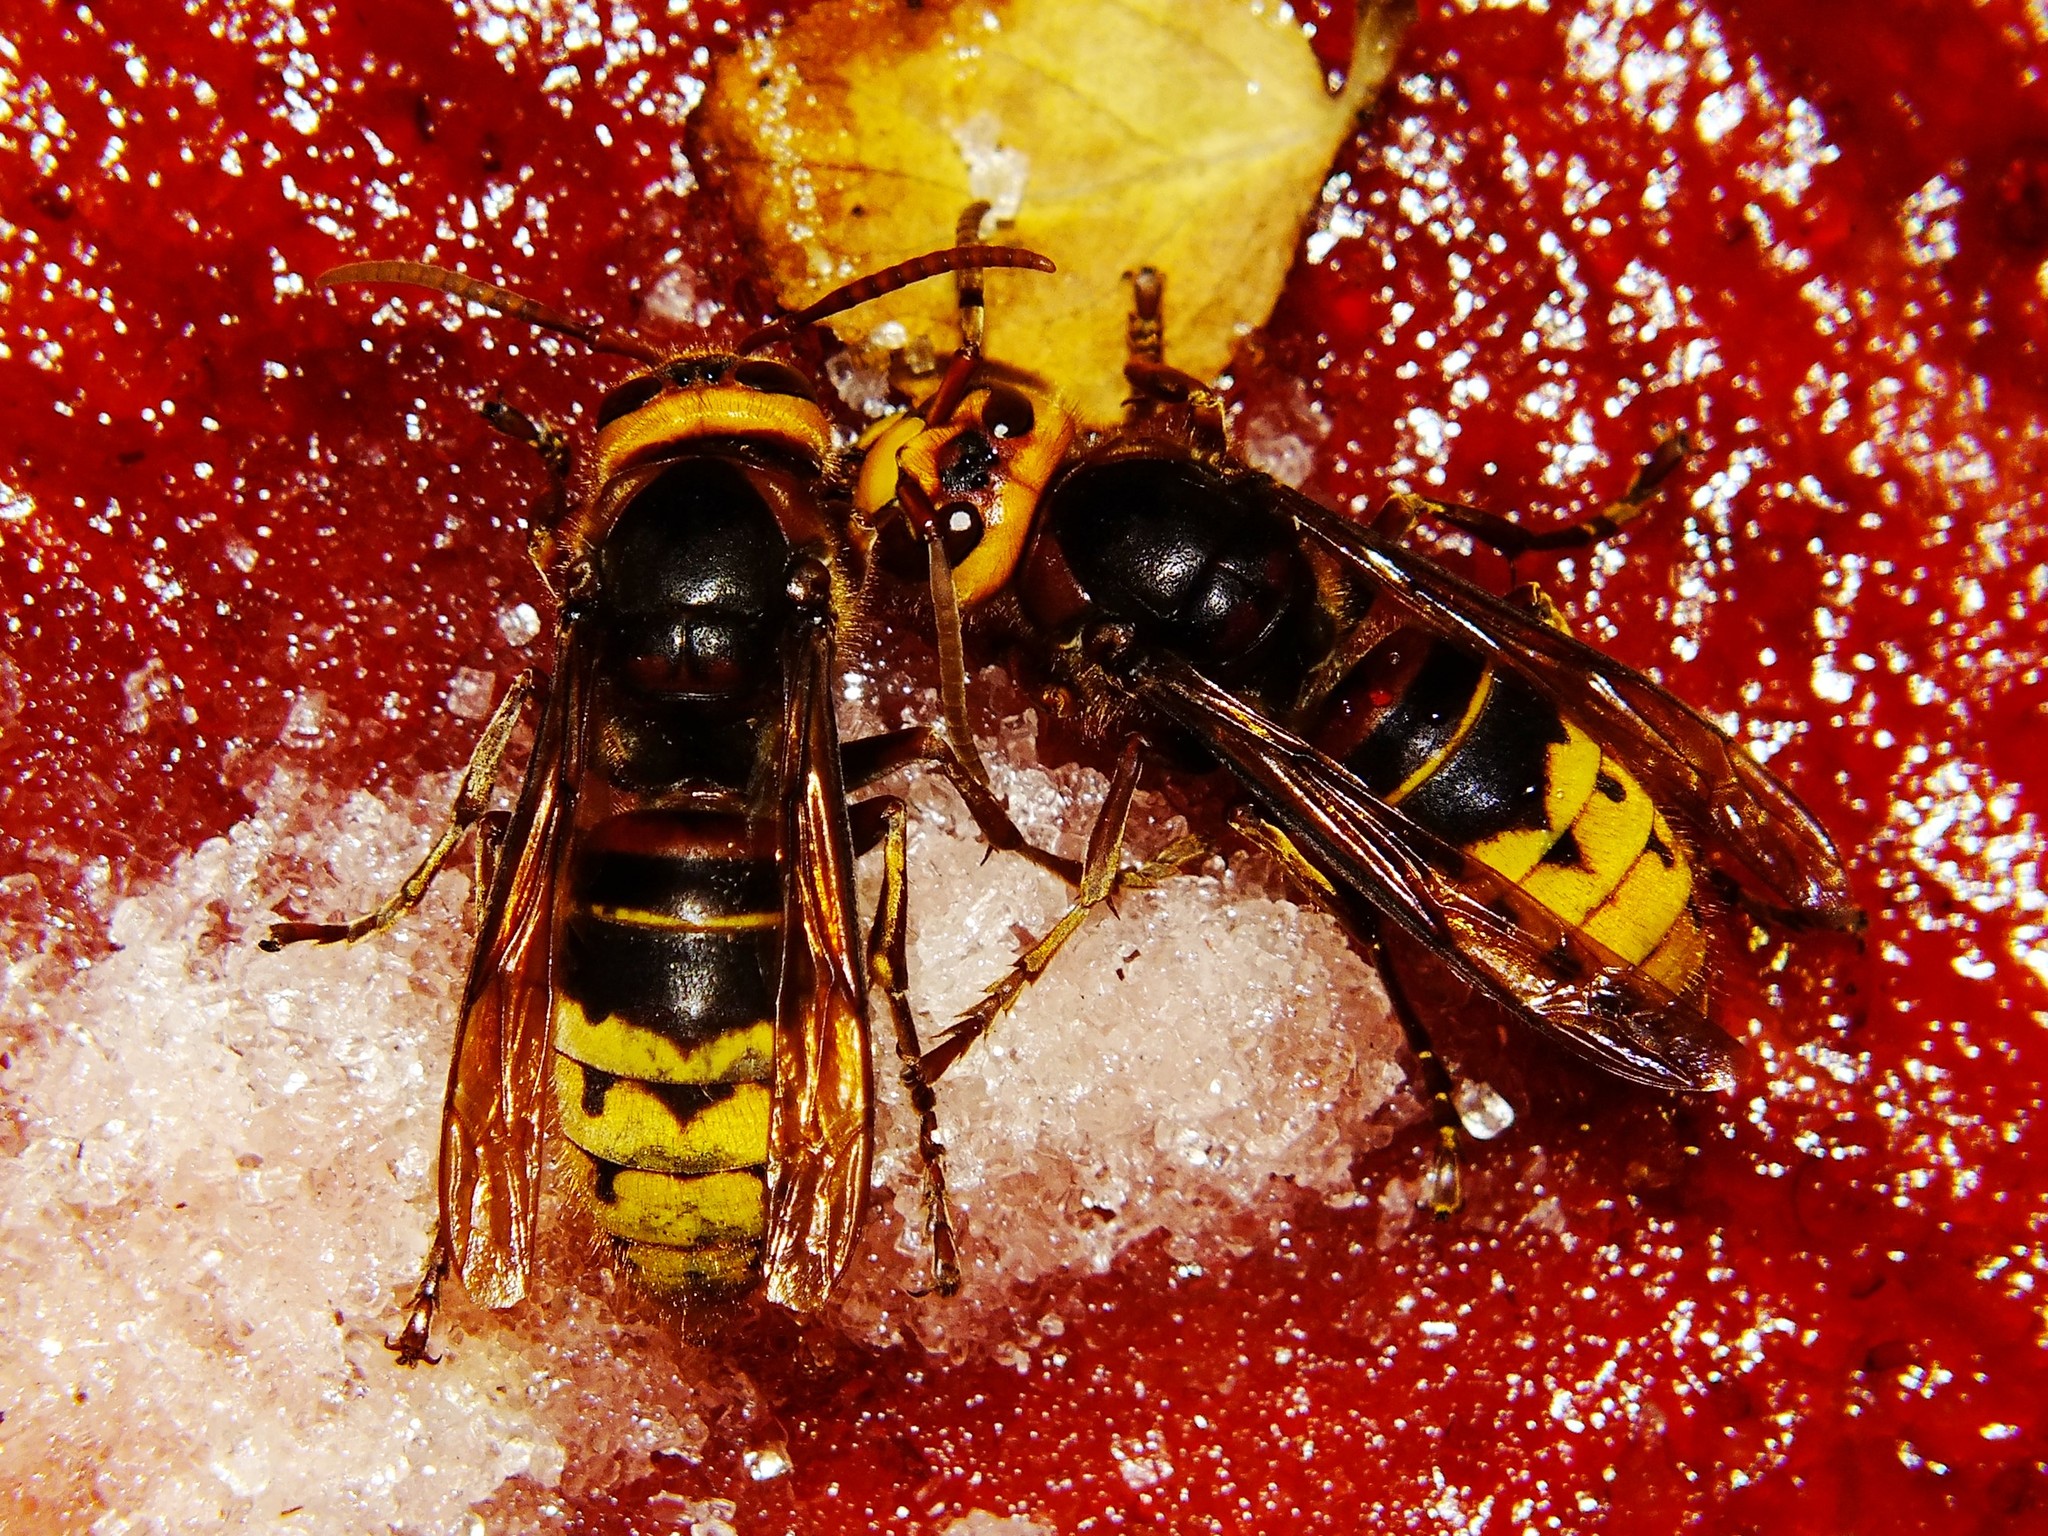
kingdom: Animalia
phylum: Arthropoda
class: Insecta
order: Hymenoptera
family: Vespidae
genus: Vespa
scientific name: Vespa crabro
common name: Hornet
